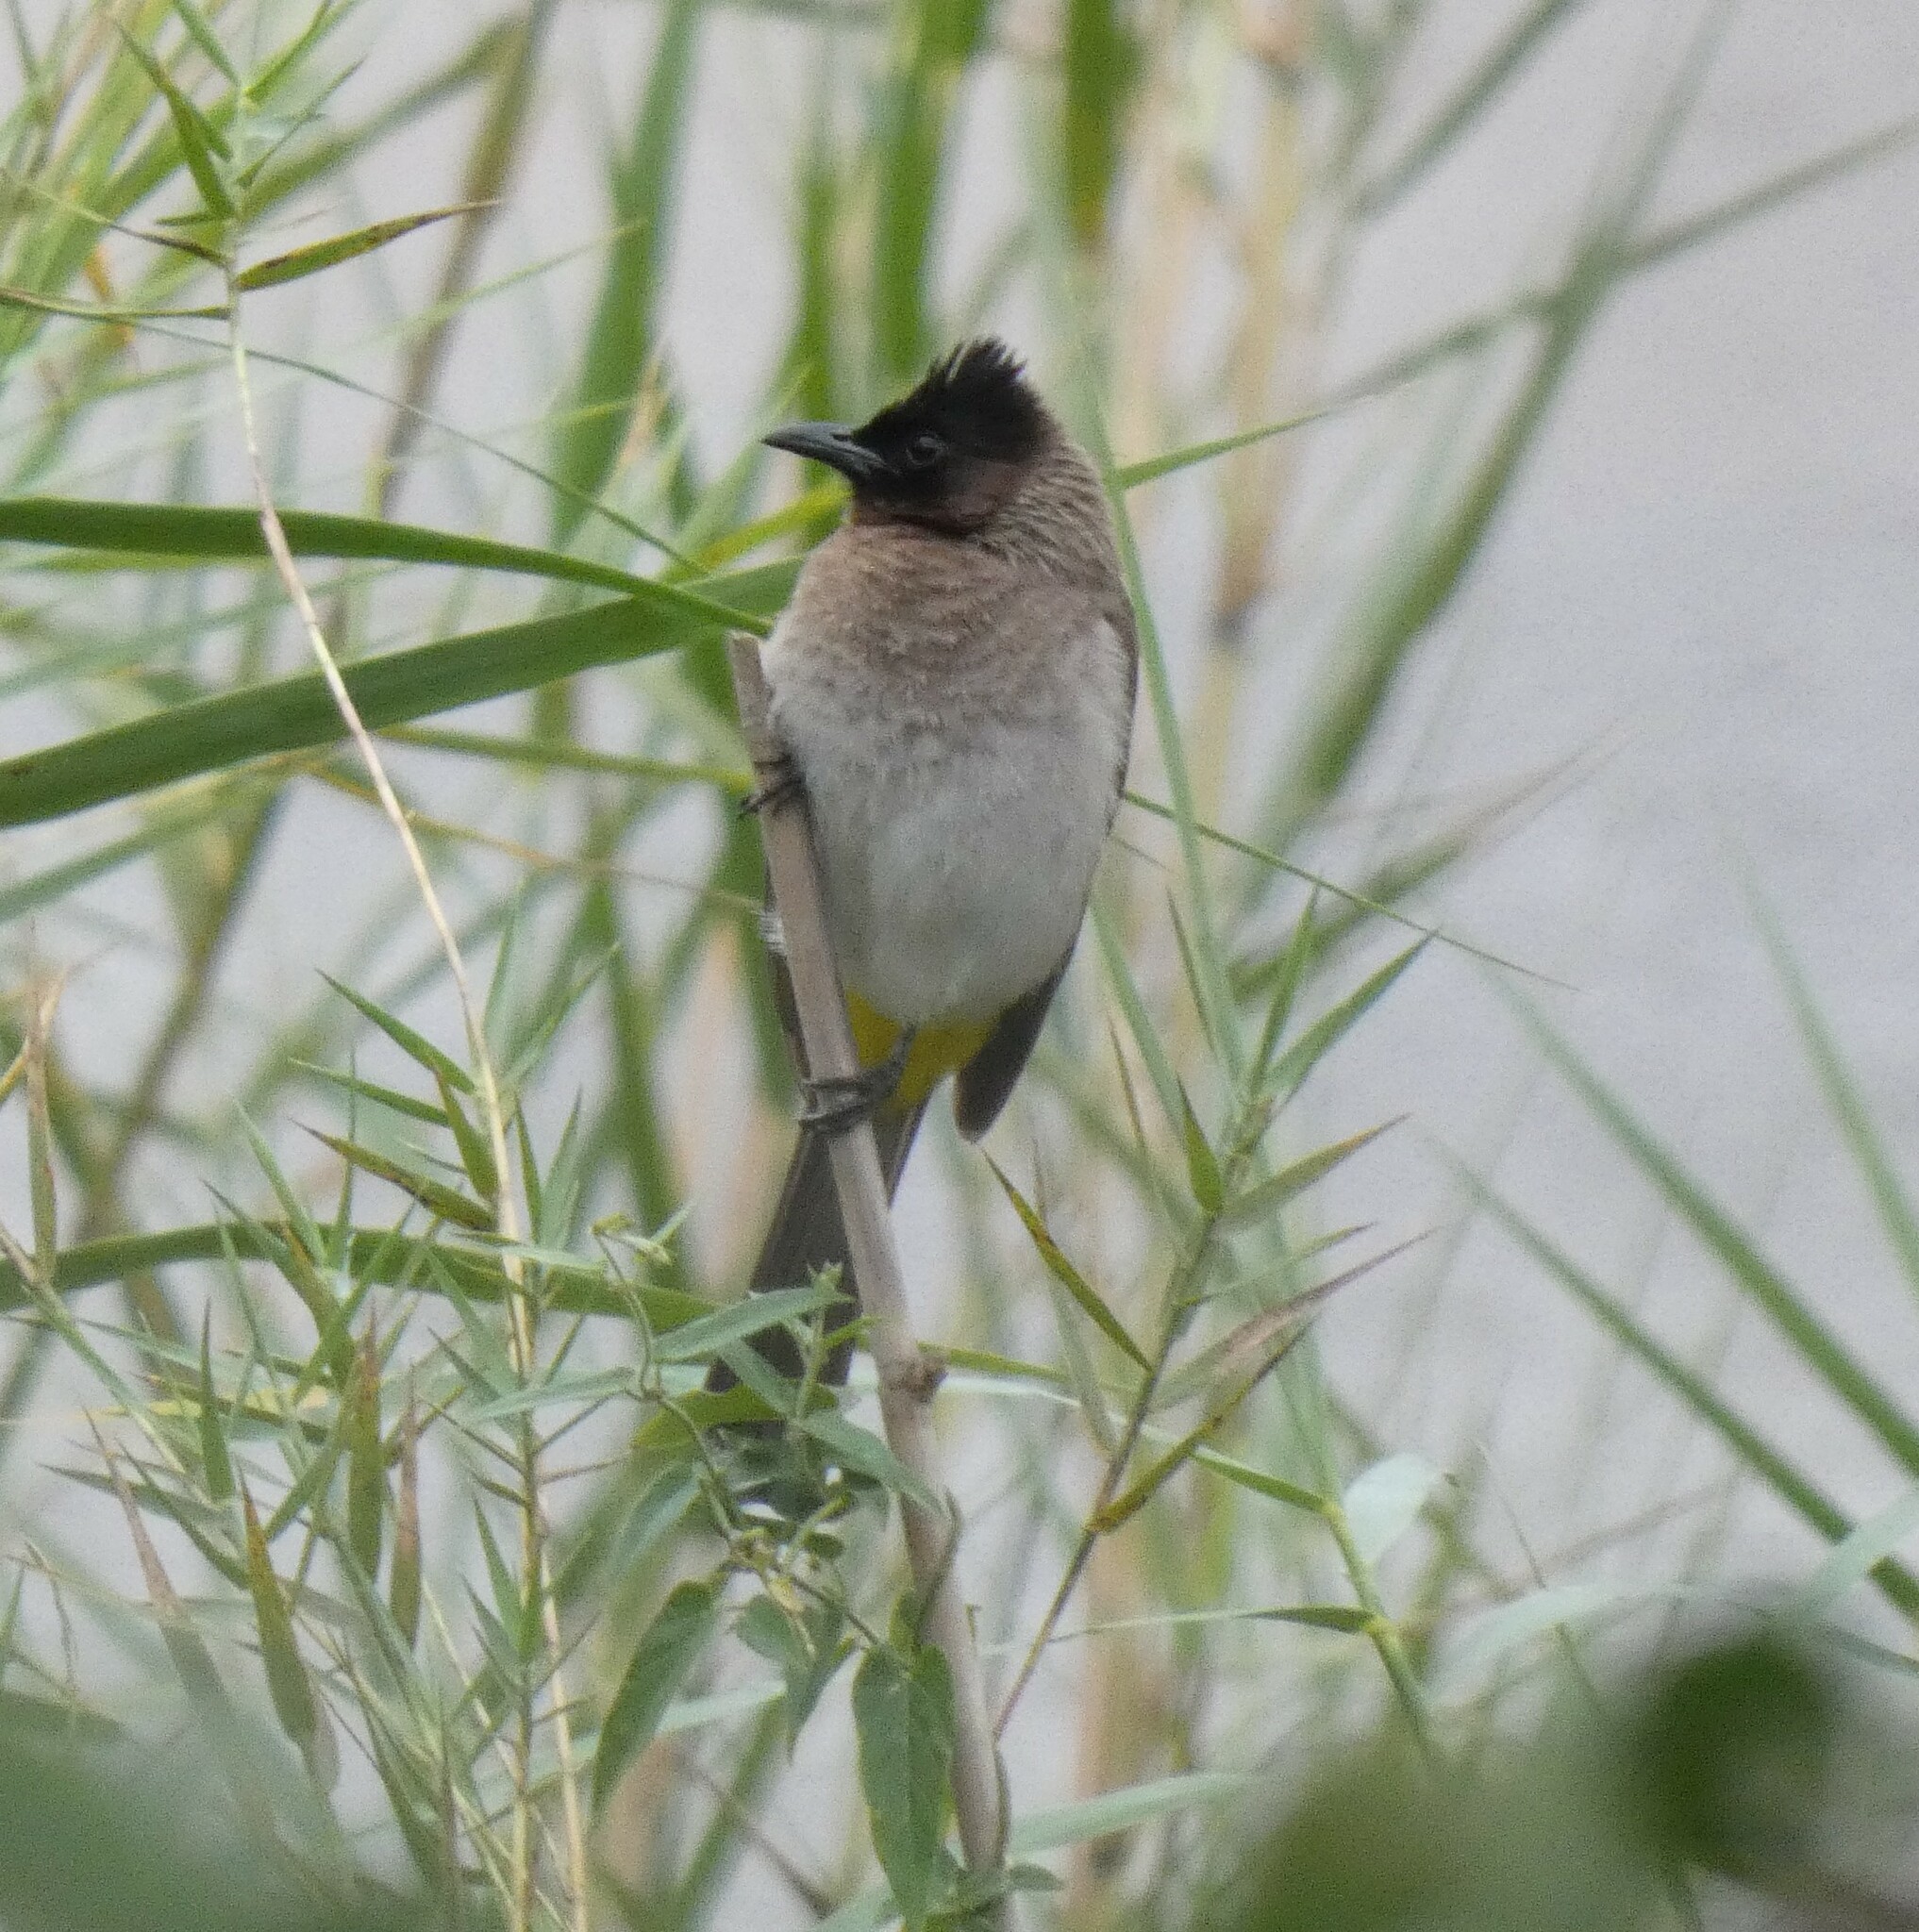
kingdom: Animalia
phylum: Chordata
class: Aves
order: Passeriformes
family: Pycnonotidae
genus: Pycnonotus
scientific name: Pycnonotus barbatus
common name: Common bulbul
